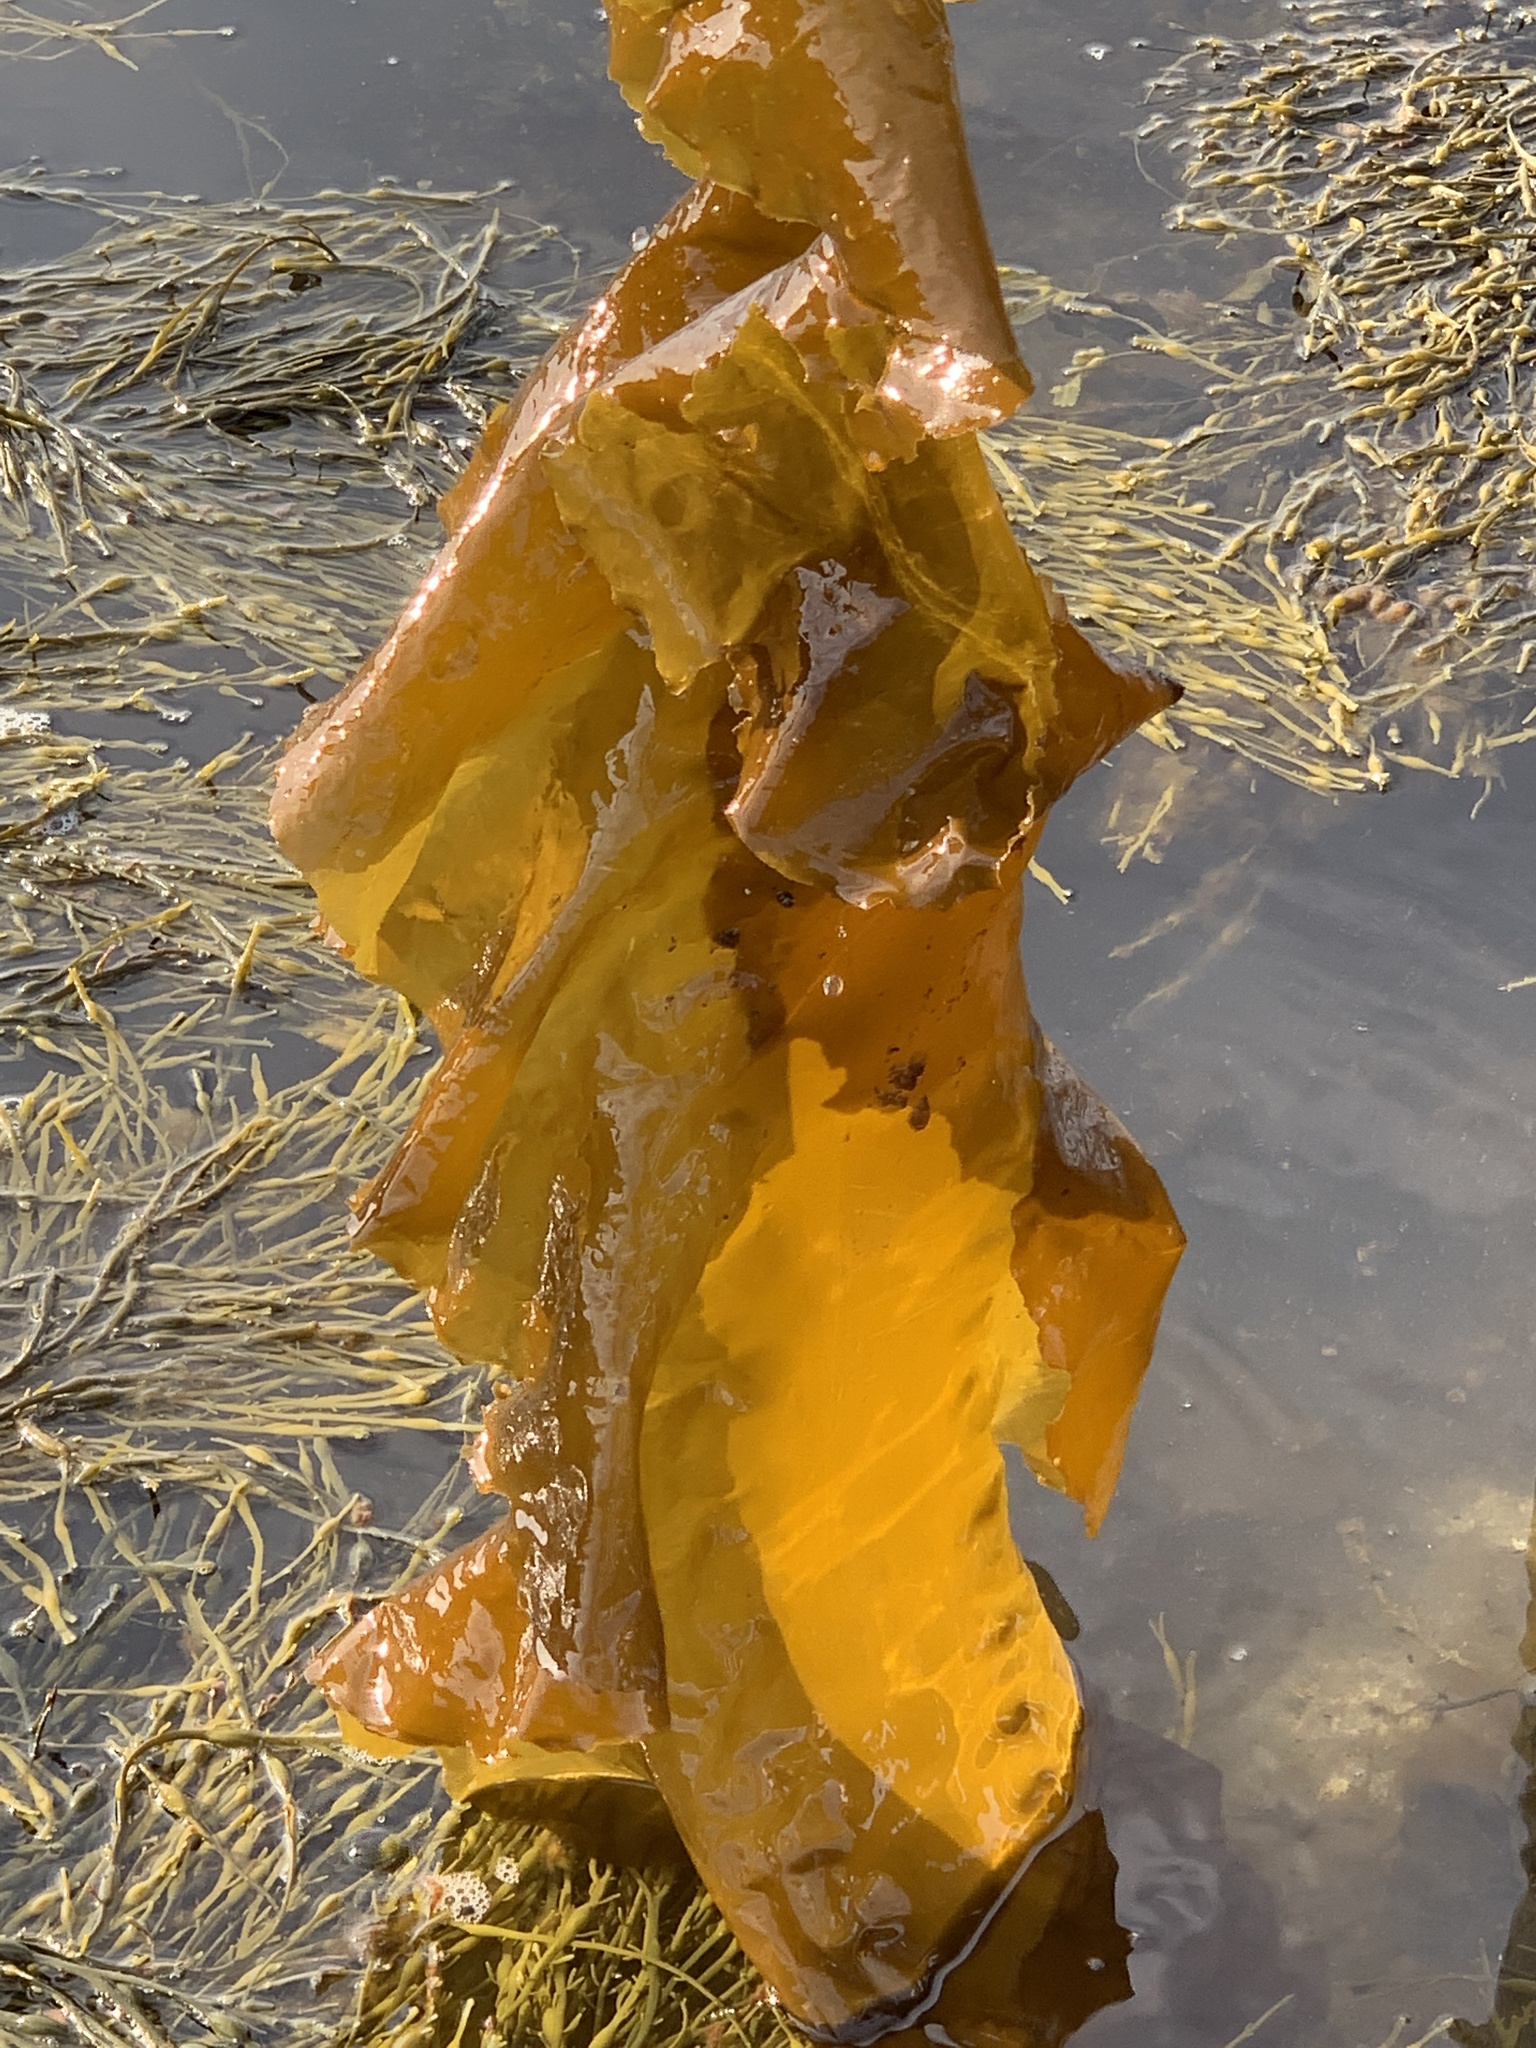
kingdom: Chromista
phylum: Ochrophyta
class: Phaeophyceae
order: Laminariales
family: Laminariaceae
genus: Saccharina
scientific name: Saccharina latissima
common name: Poor man's weather glass
